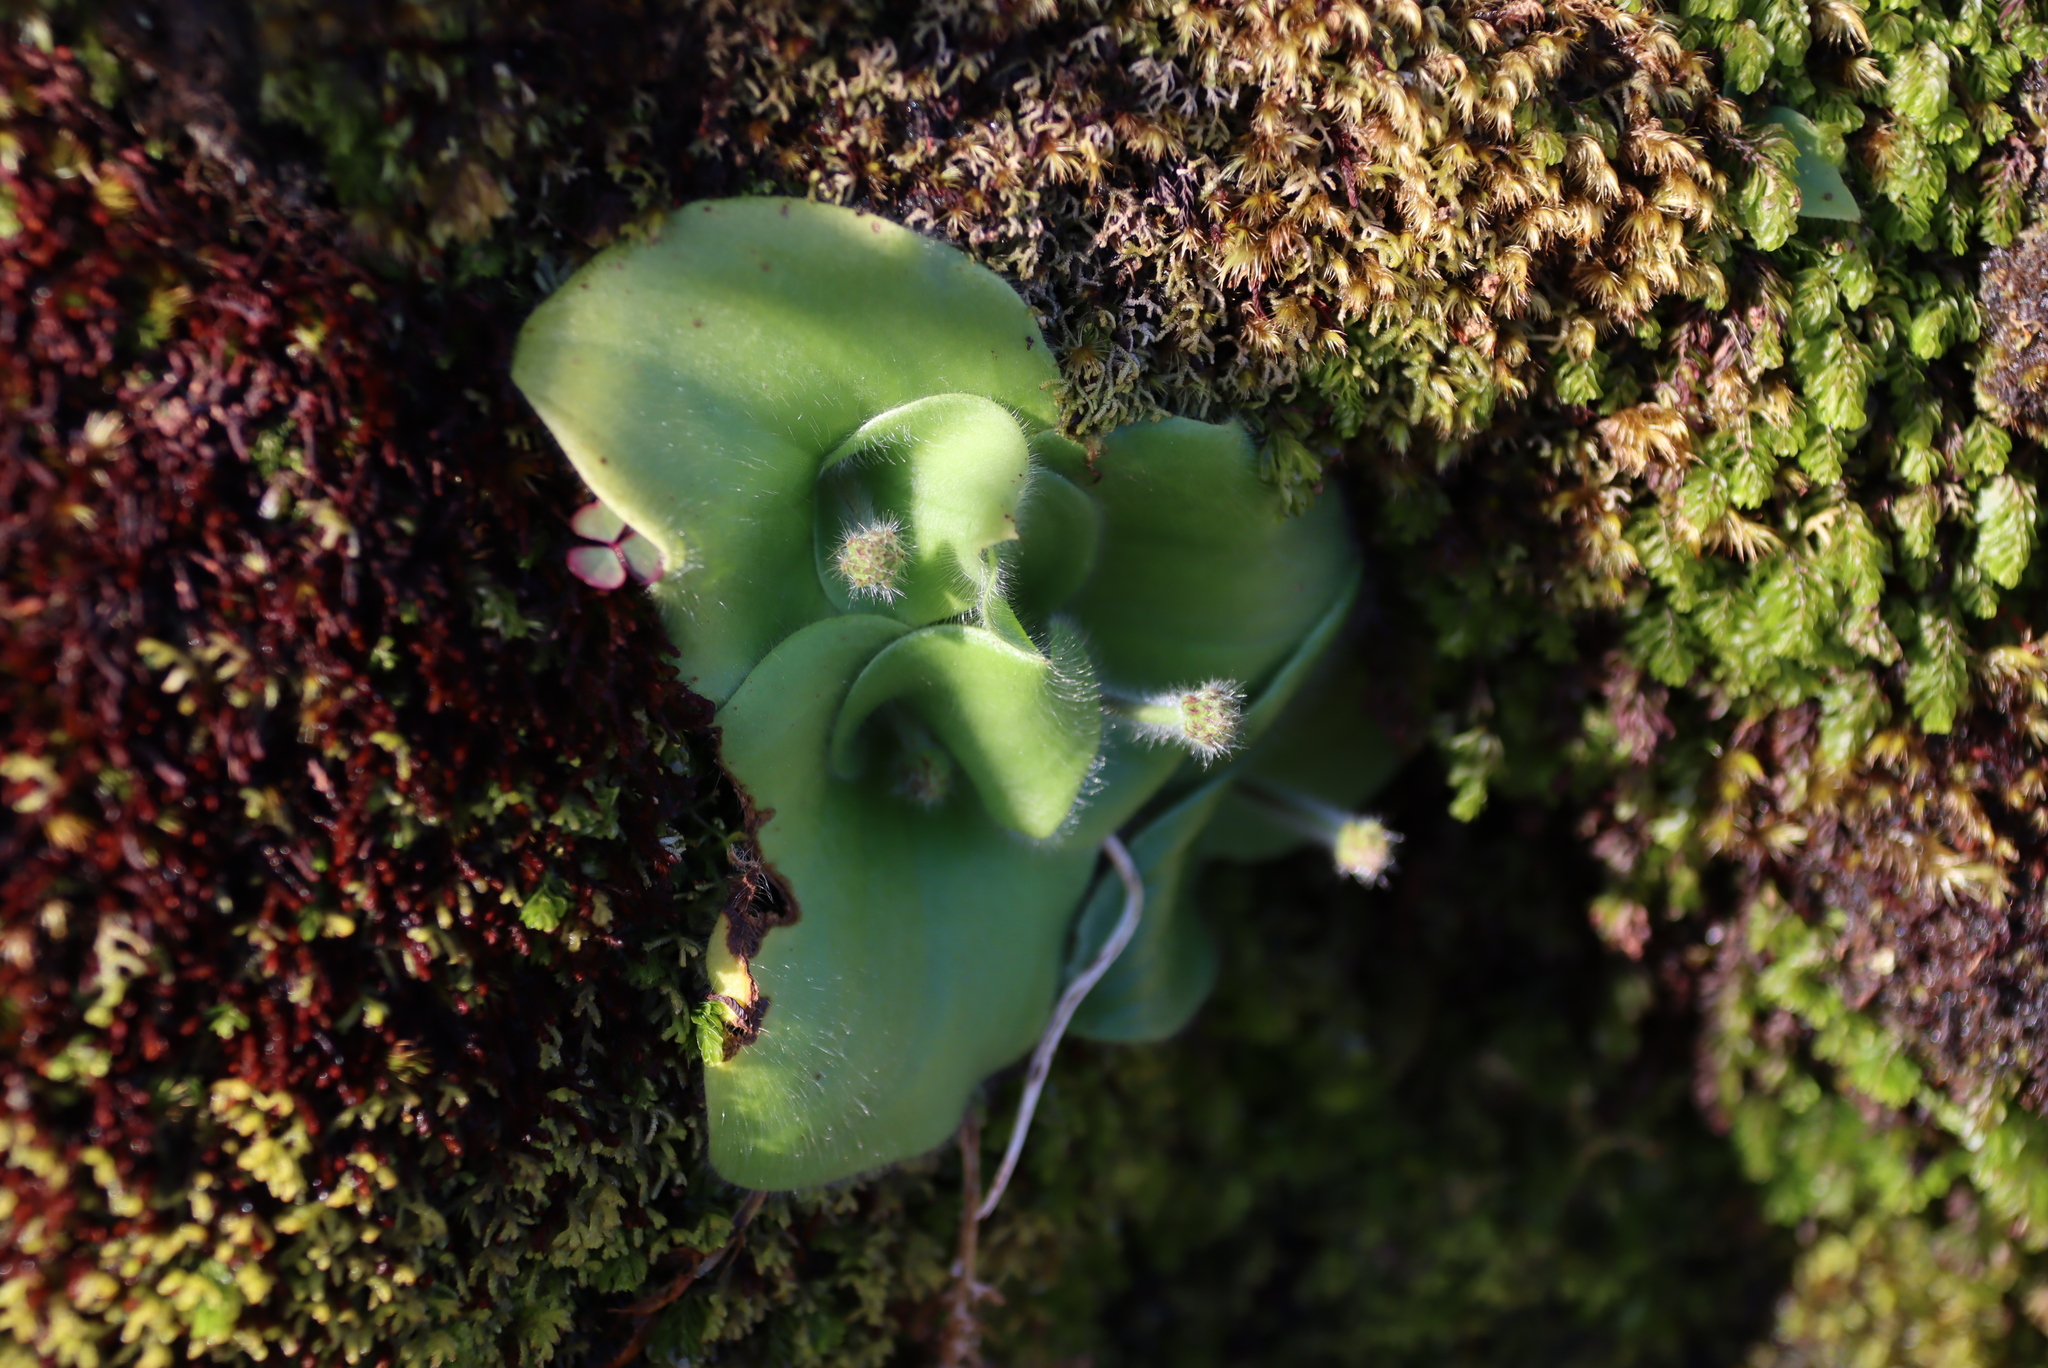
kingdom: Plantae
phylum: Tracheophyta
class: Liliopsida
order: Asparagales
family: Orchidaceae
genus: Holothrix
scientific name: Holothrix condensata
